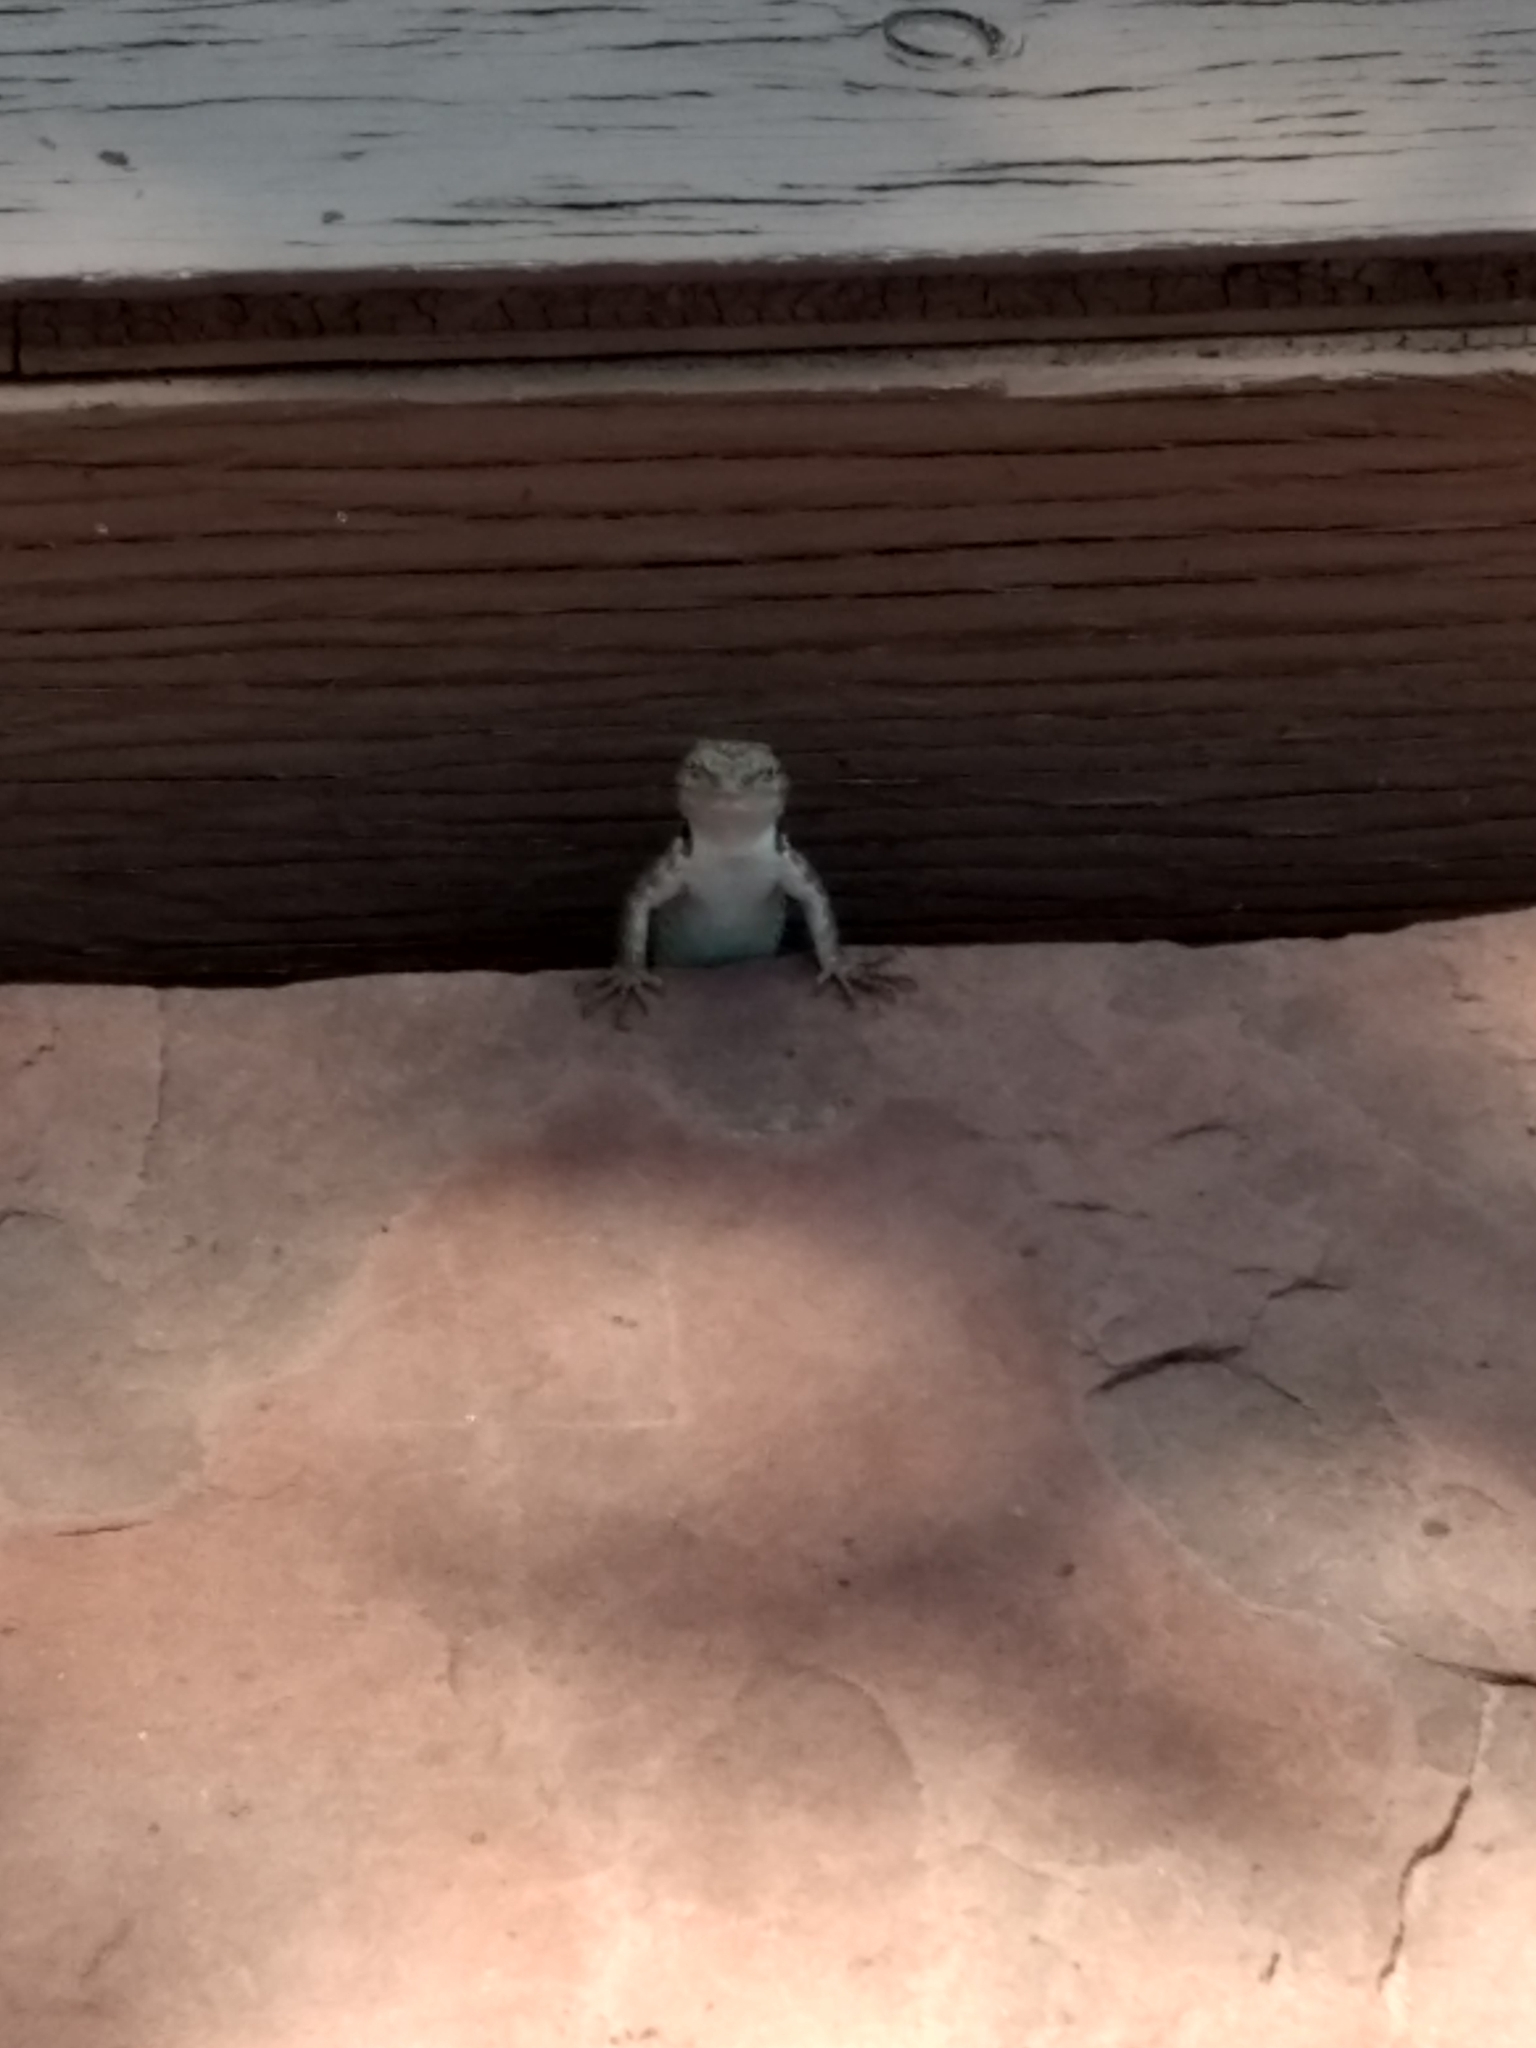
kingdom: Animalia
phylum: Chordata
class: Squamata
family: Phrynosomatidae
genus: Sceloporus
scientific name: Sceloporus tristichus
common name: Plateau fence lizard
